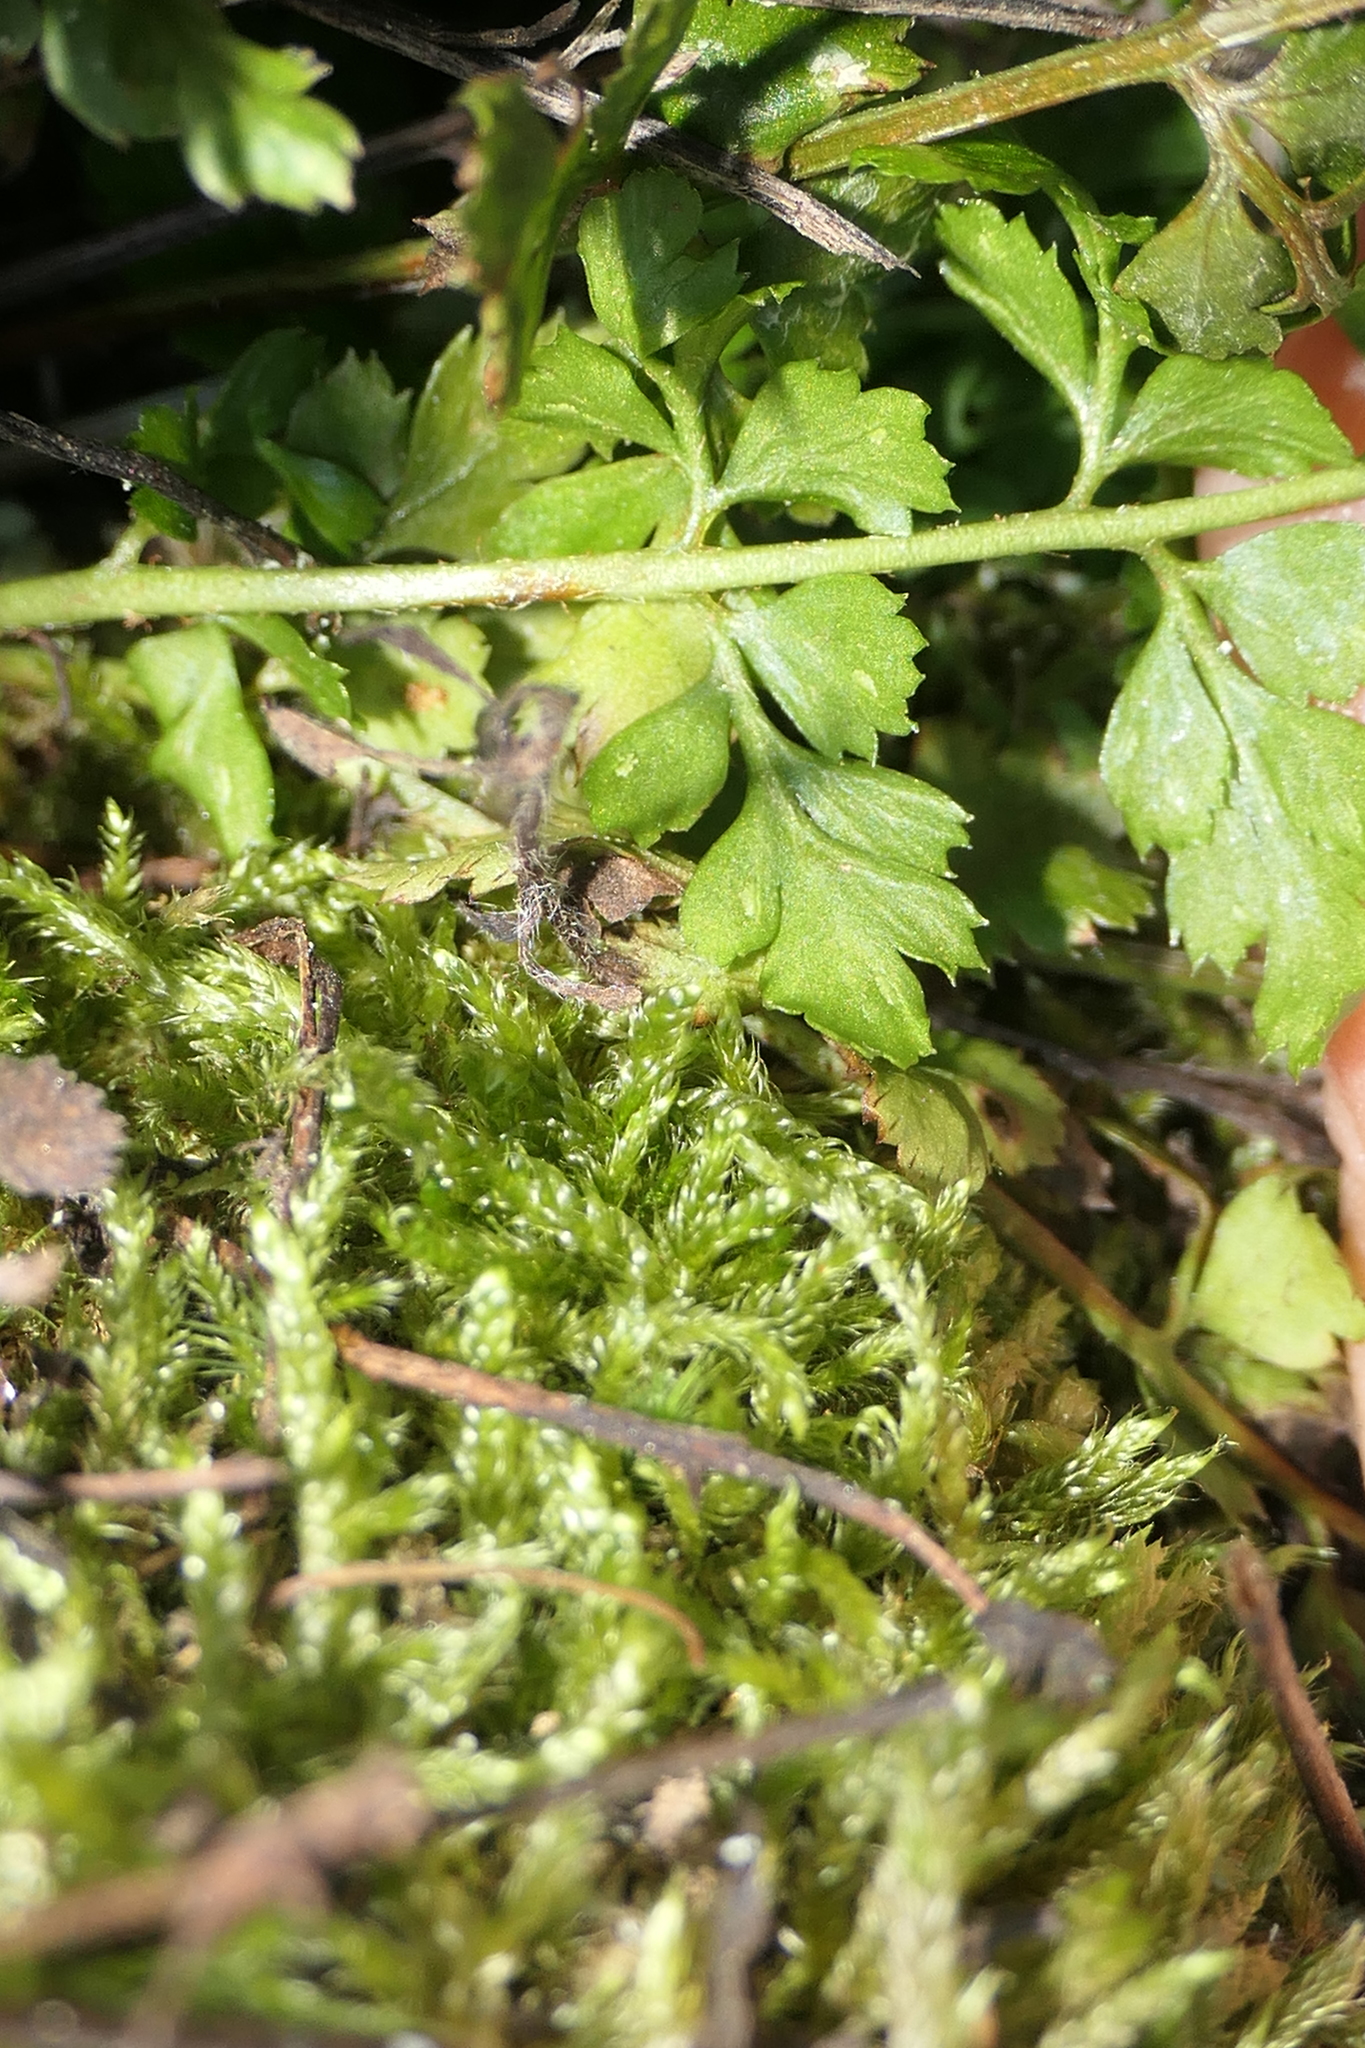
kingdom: Plantae
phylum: Tracheophyta
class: Polypodiopsida
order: Polypodiales
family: Aspleniaceae
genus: Asplenium
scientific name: Asplenium obovatum
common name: Lanceolate spleenwort
